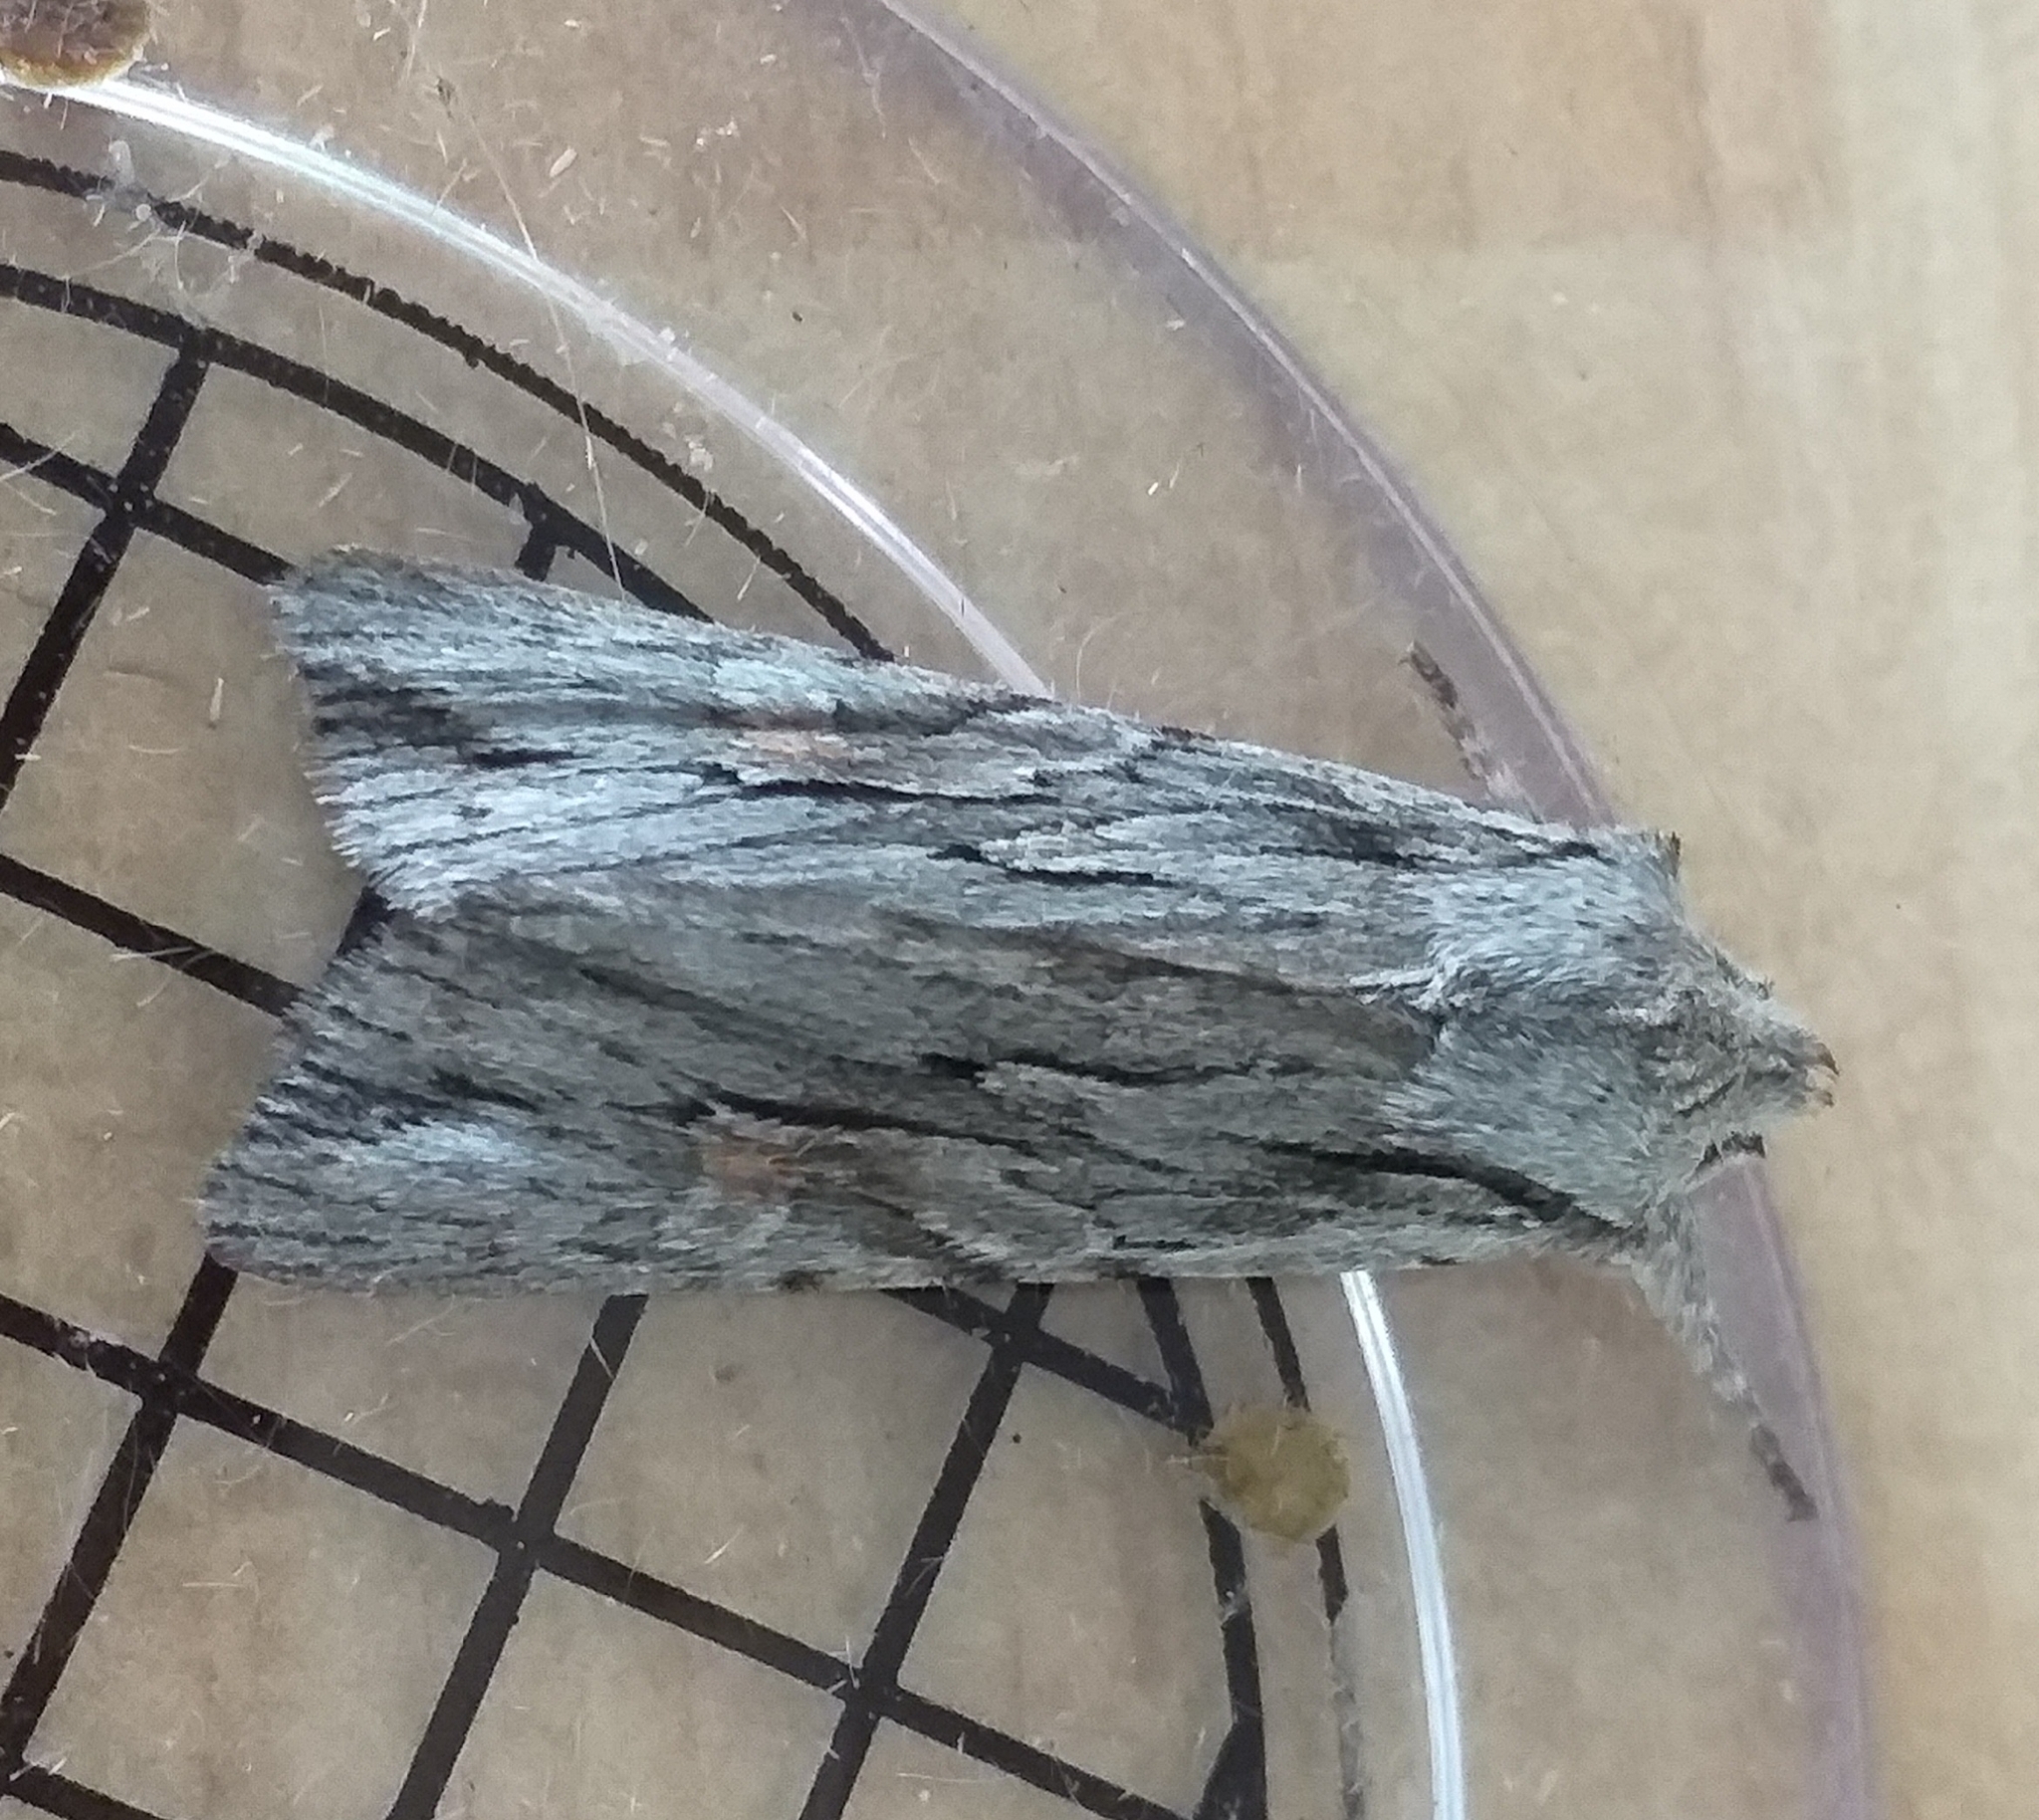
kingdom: Animalia
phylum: Arthropoda
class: Insecta
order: Lepidoptera
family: Noctuidae
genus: Lithophane
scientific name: Lithophane leautieri
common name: Blair's shoulder-knot
